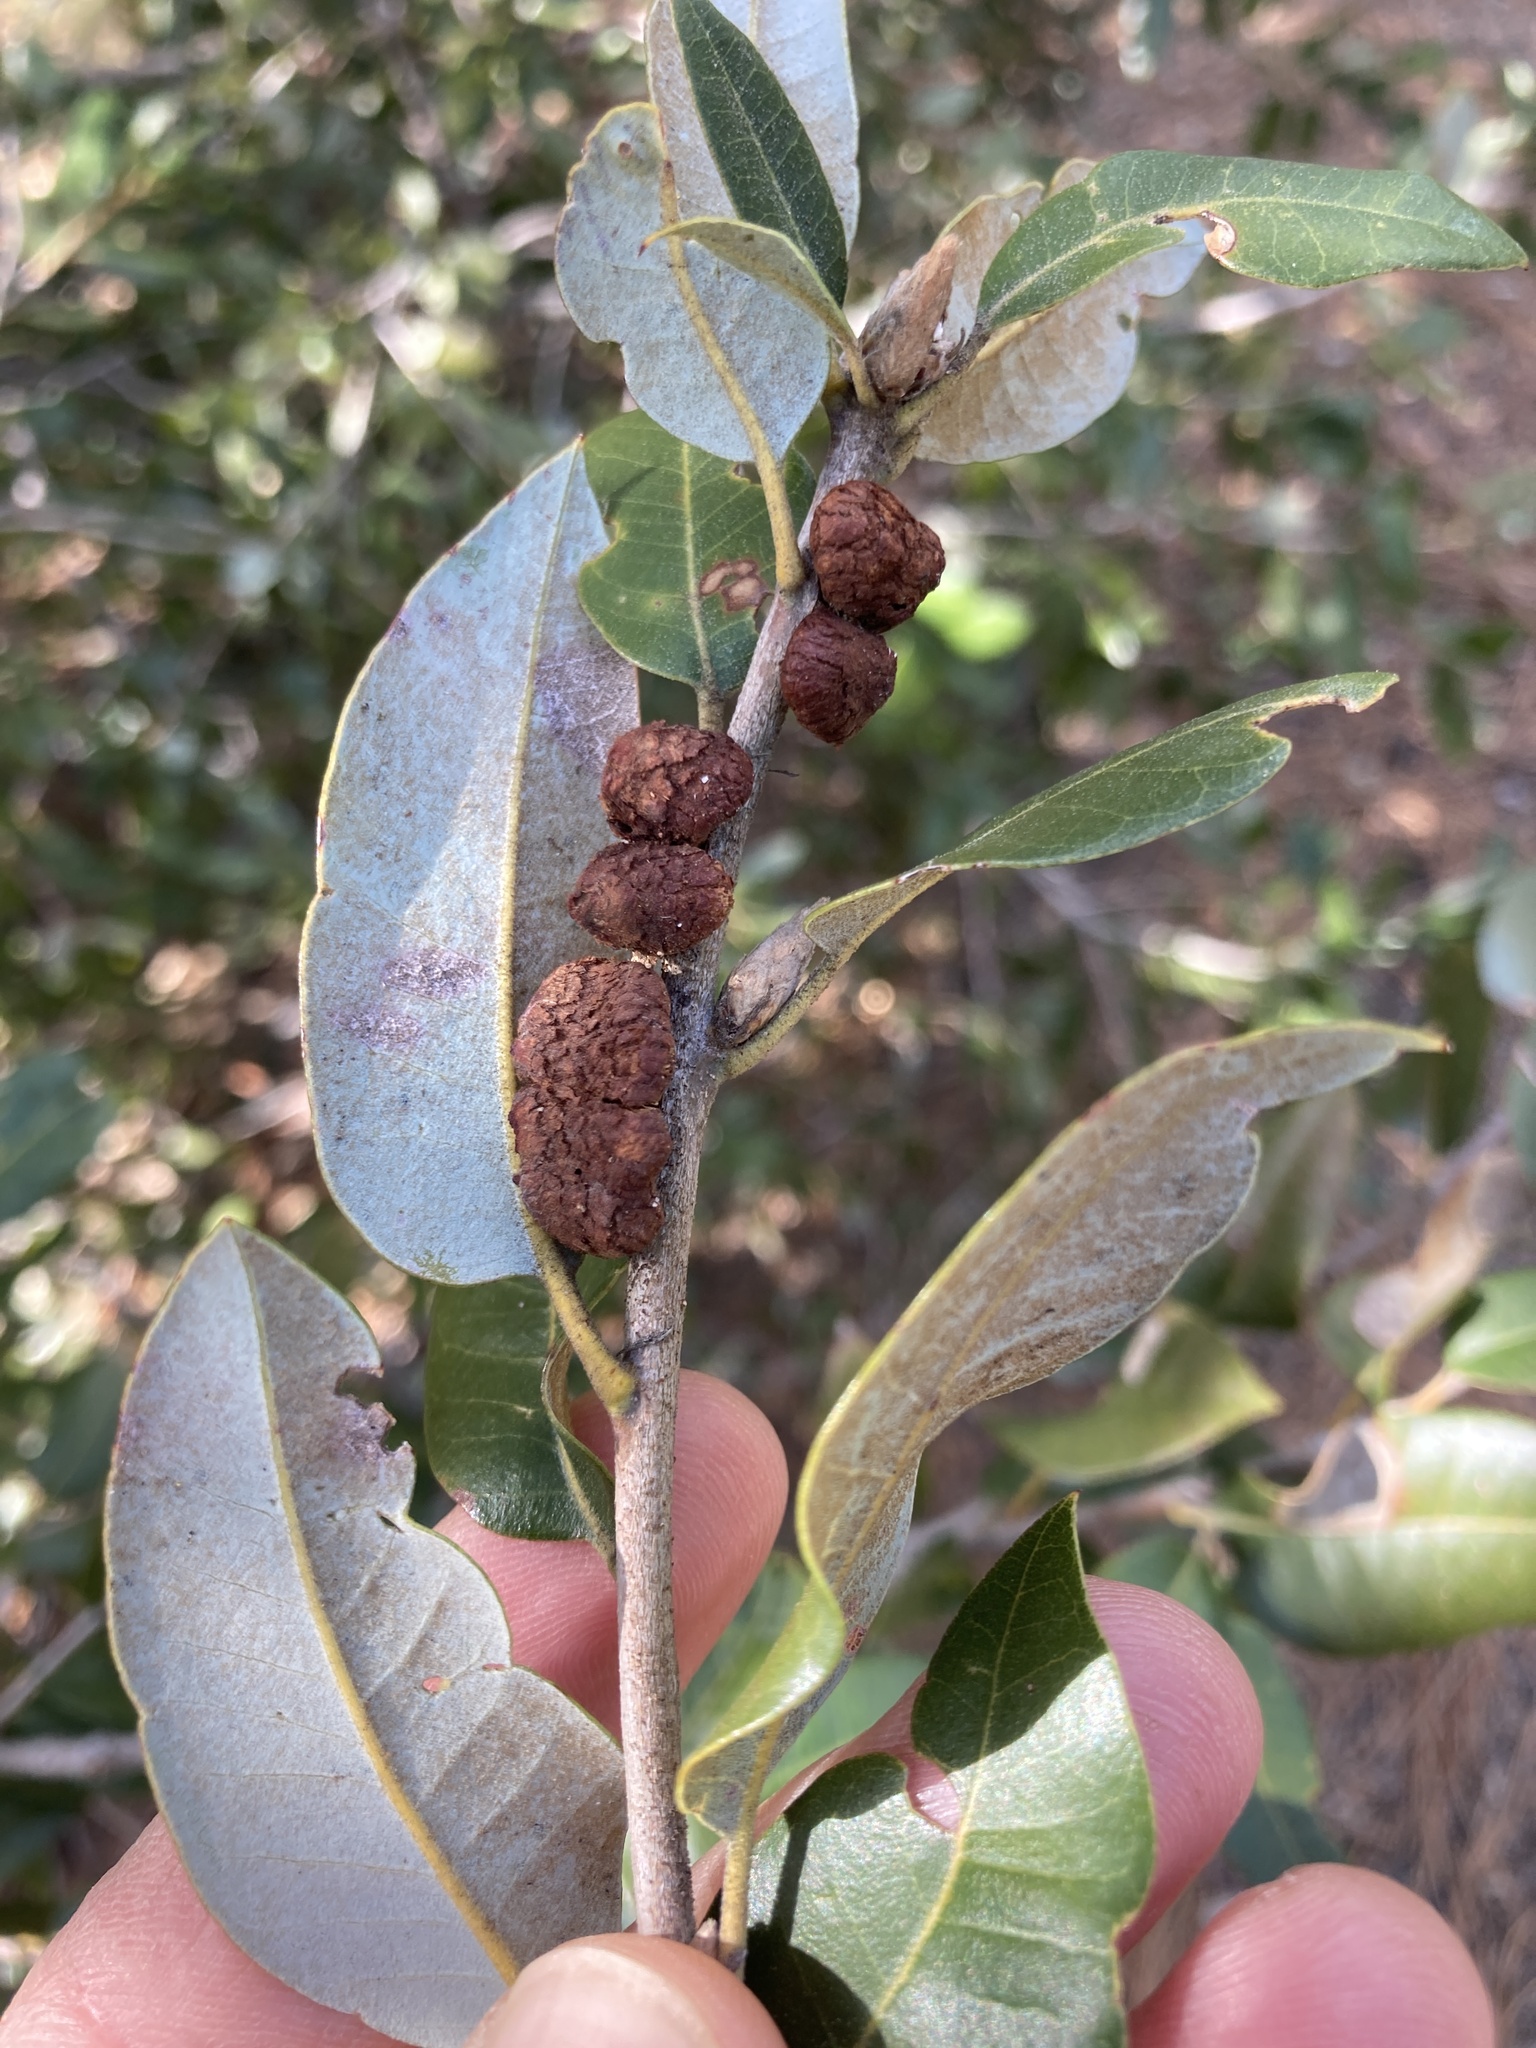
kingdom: Animalia
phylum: Arthropoda
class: Insecta
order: Hymenoptera
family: Cynipidae
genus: Disholandricus
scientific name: Disholandricus
